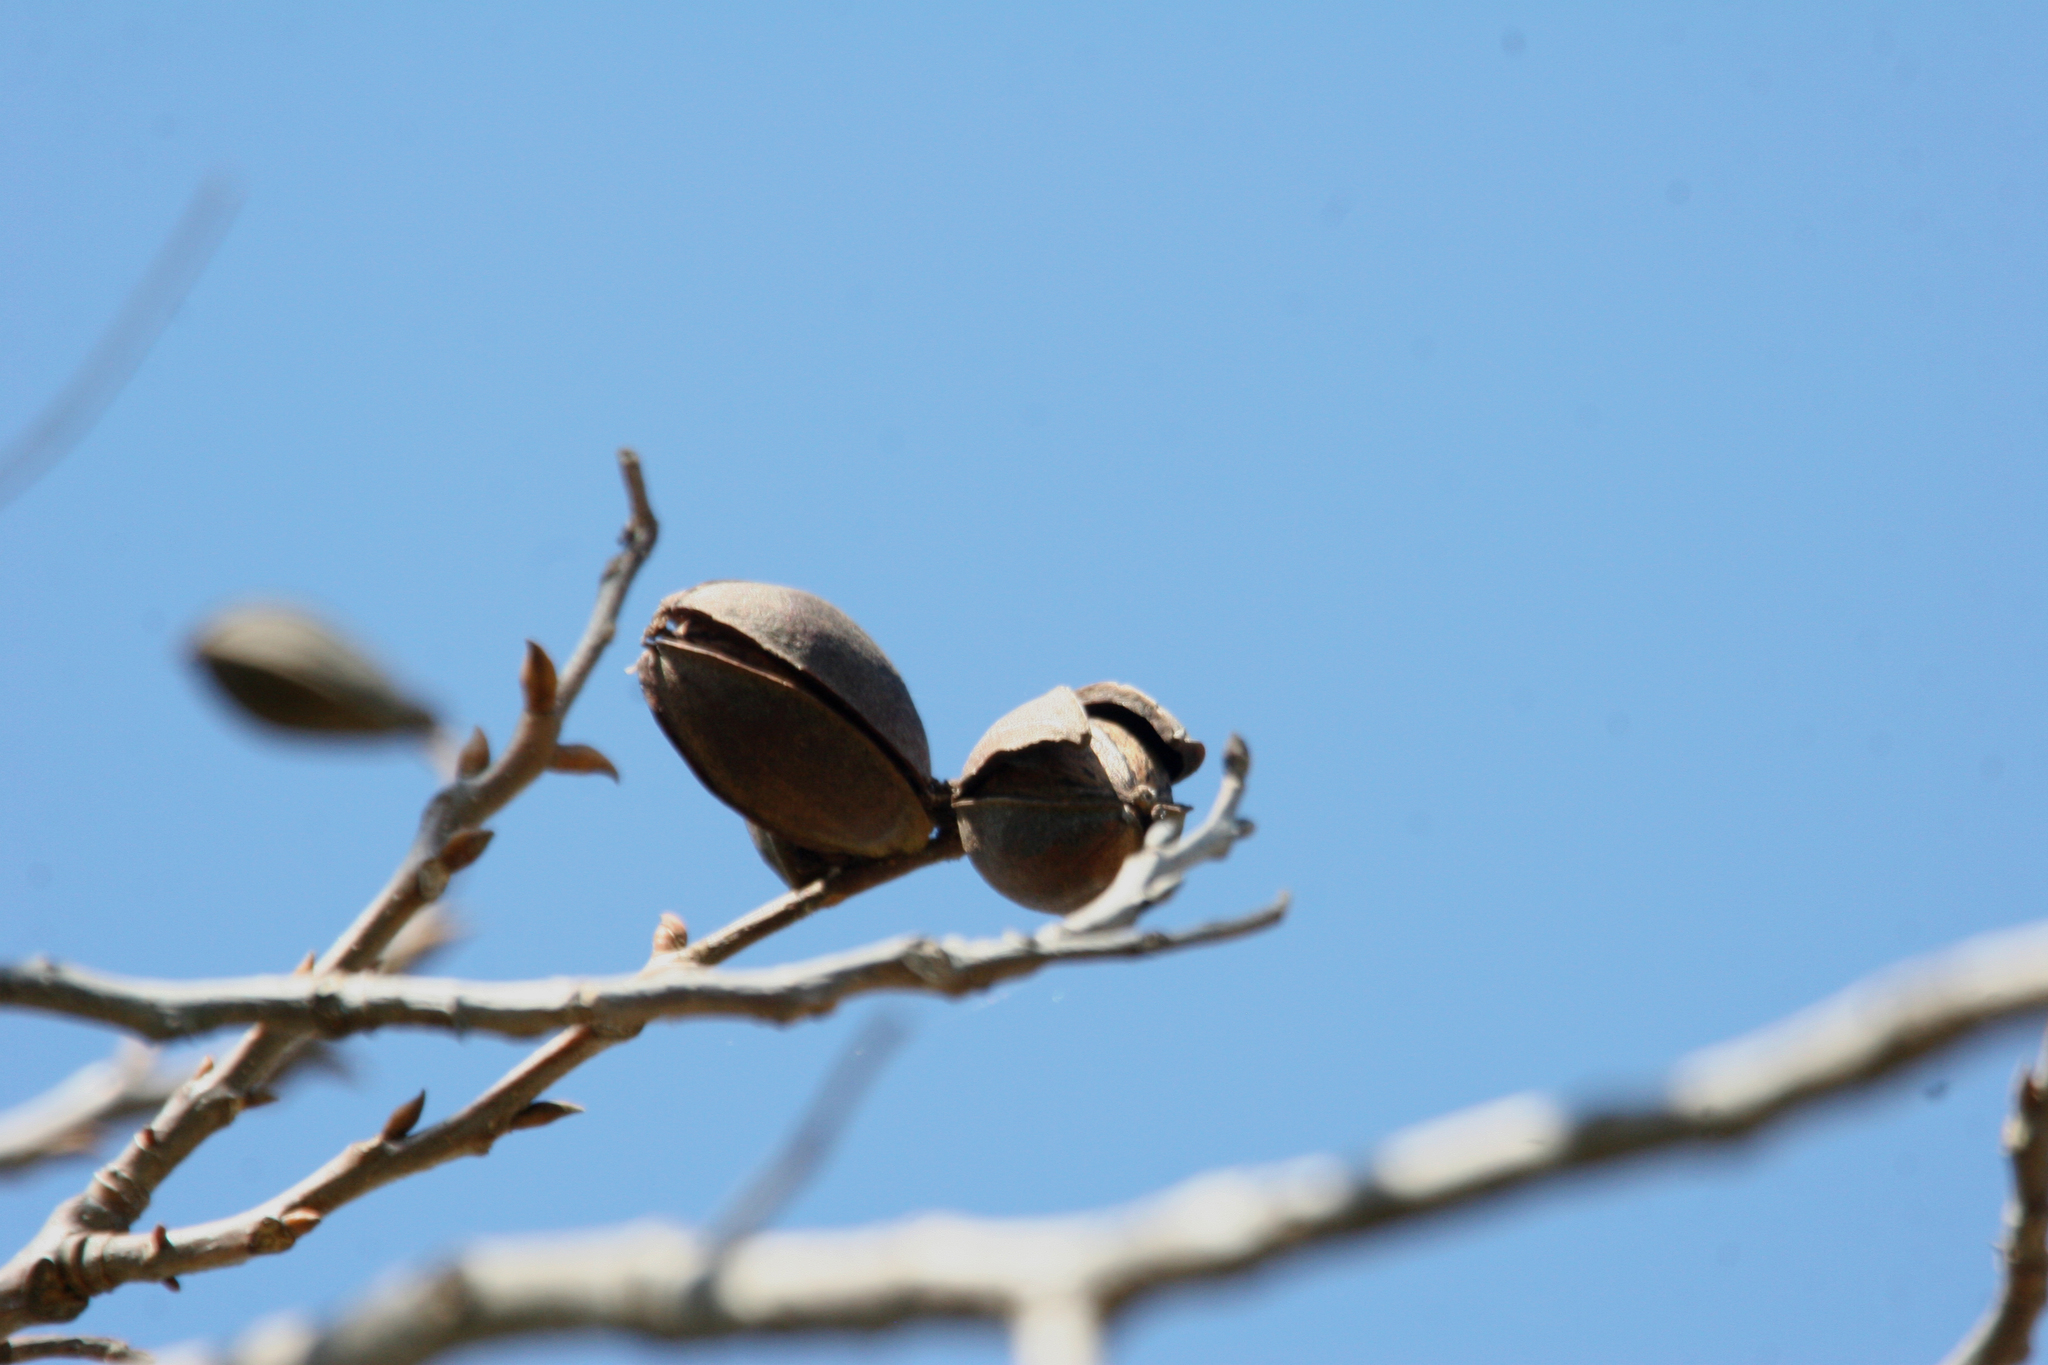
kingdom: Plantae
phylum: Tracheophyta
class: Magnoliopsida
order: Fagales
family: Juglandaceae
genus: Carya
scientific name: Carya illinoinensis
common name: Pecan
